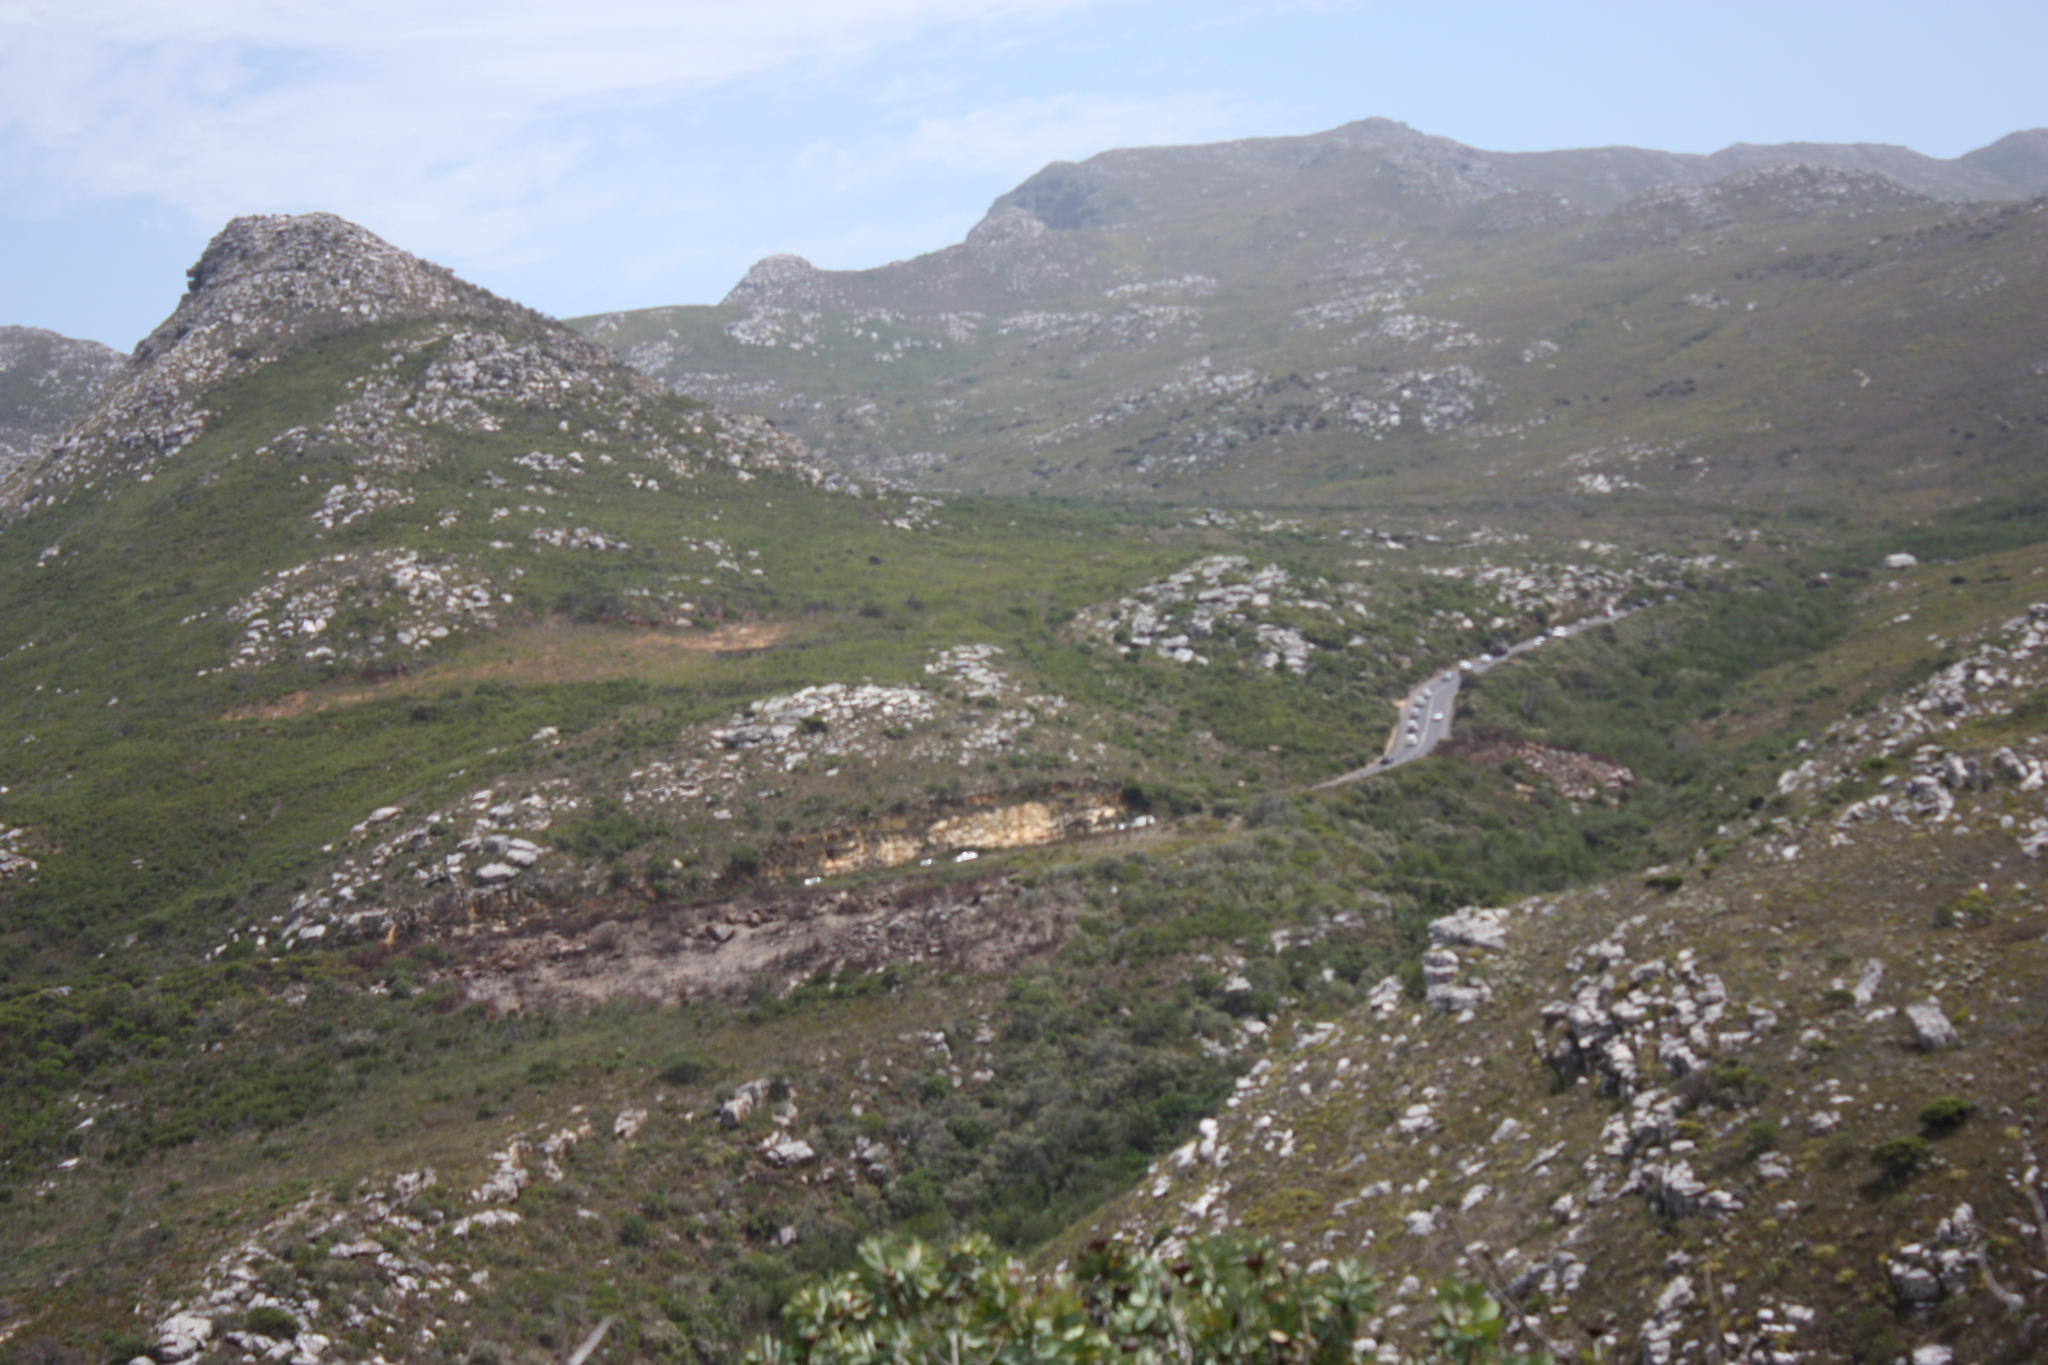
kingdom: Plantae
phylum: Tracheophyta
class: Magnoliopsida
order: Proteales
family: Proteaceae
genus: Protea
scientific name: Protea nitida
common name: Tree protea
